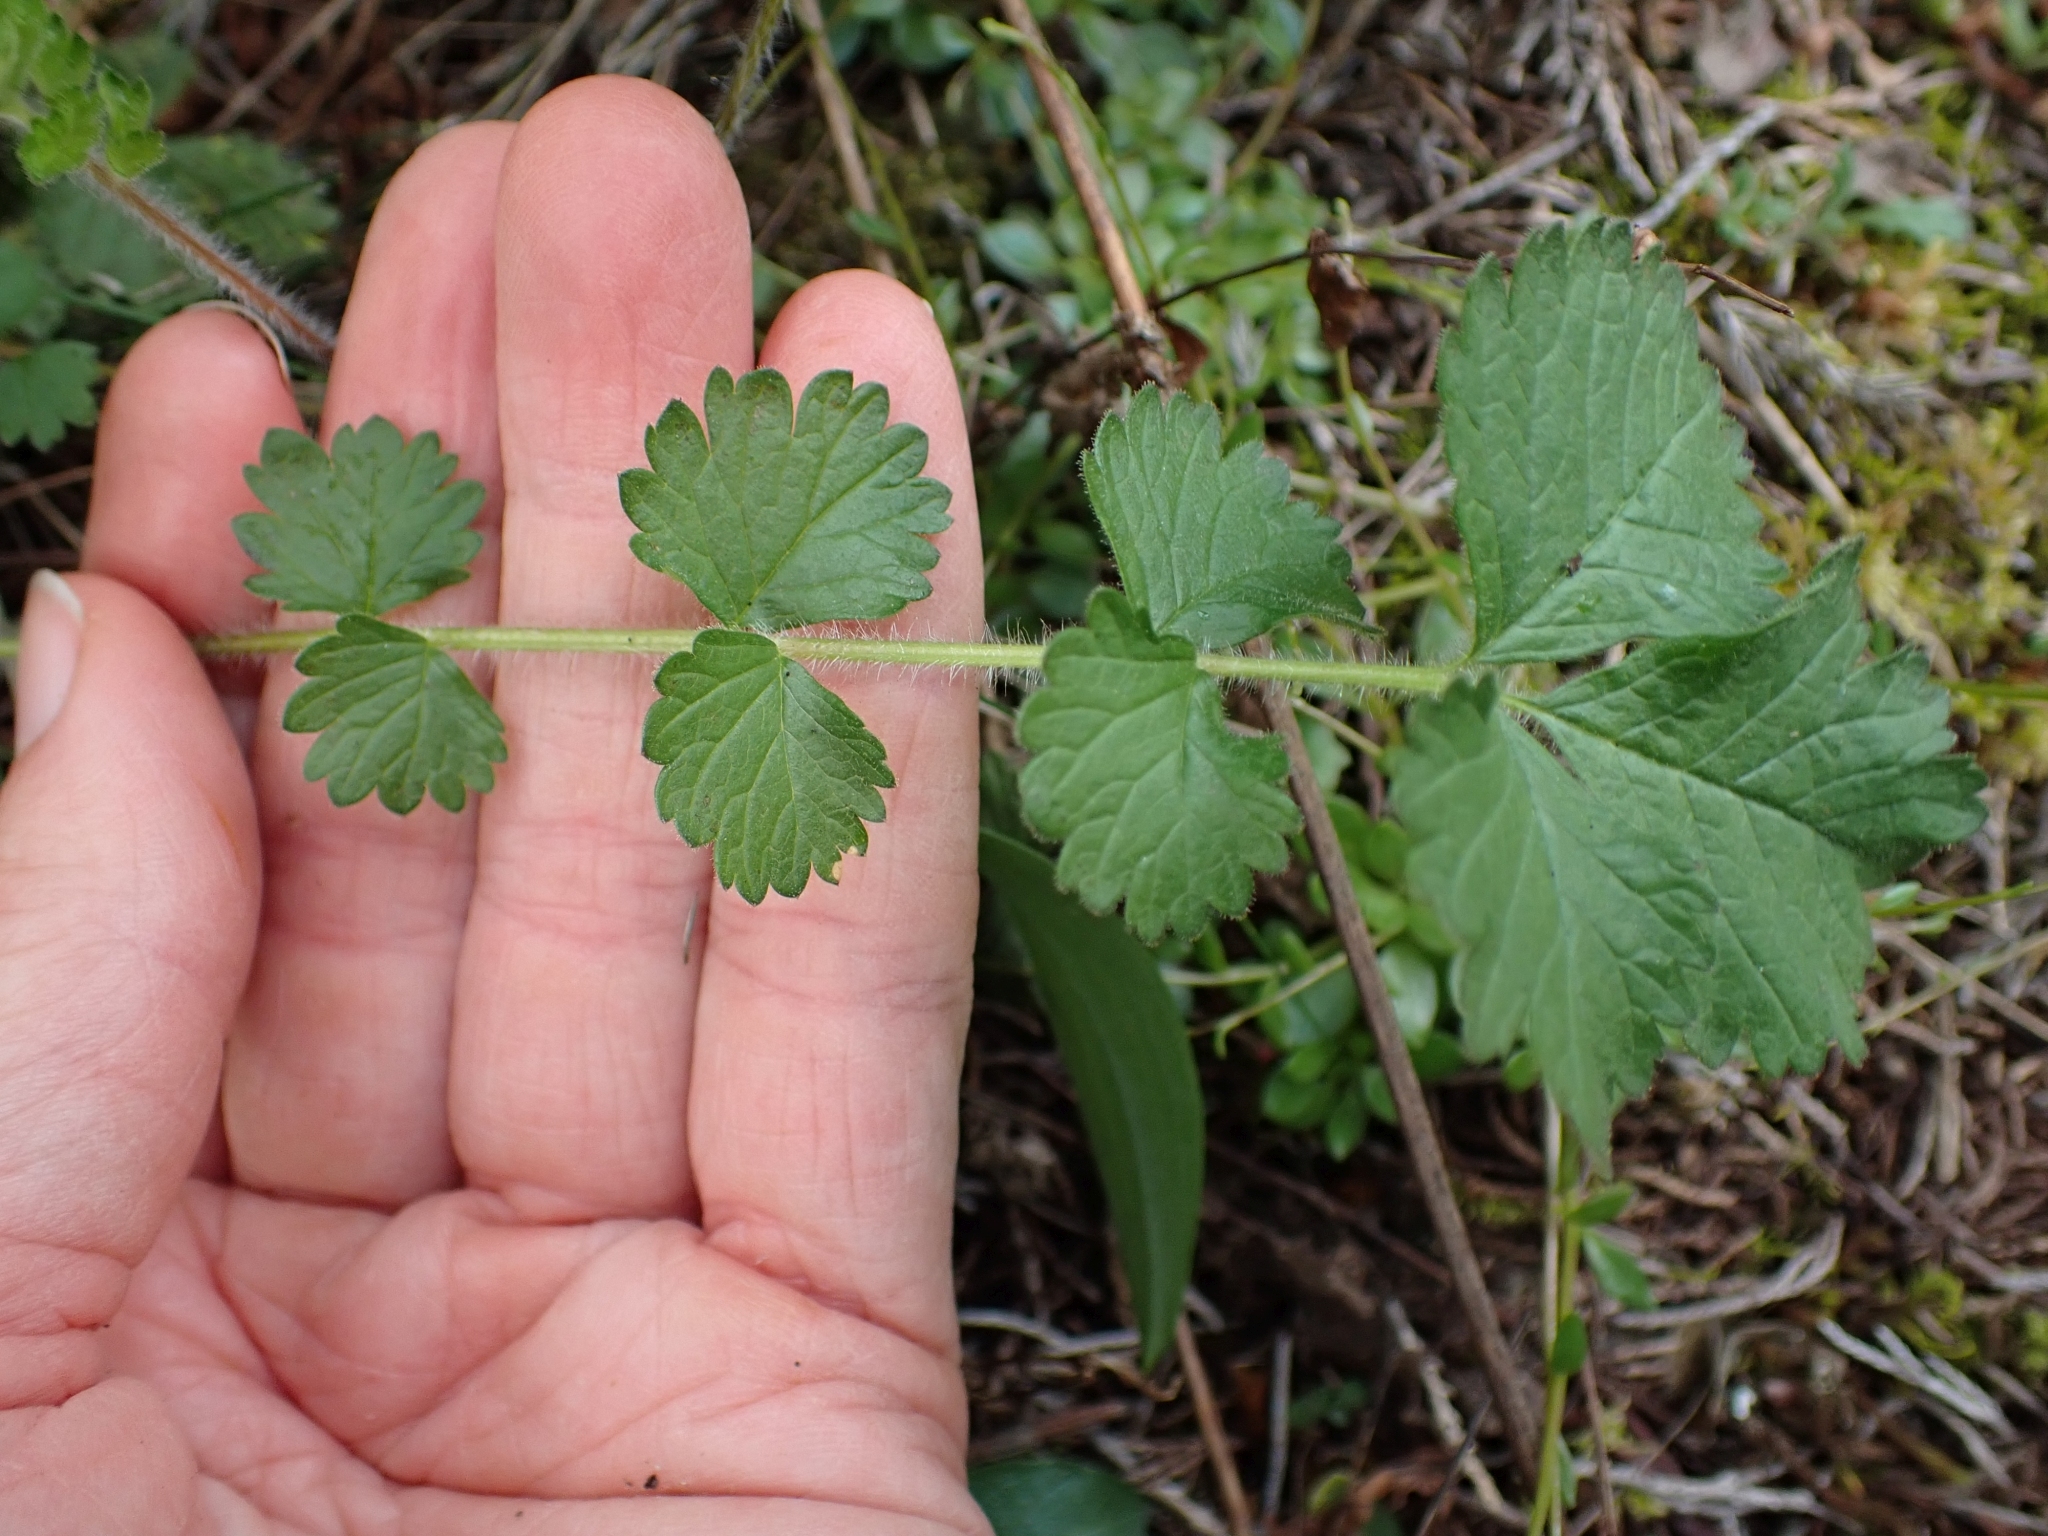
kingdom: Plantae
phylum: Tracheophyta
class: Magnoliopsida
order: Rosales
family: Rosaceae
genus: Drymocallis
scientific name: Drymocallis glandulosa
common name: Sticky cinquefoil
